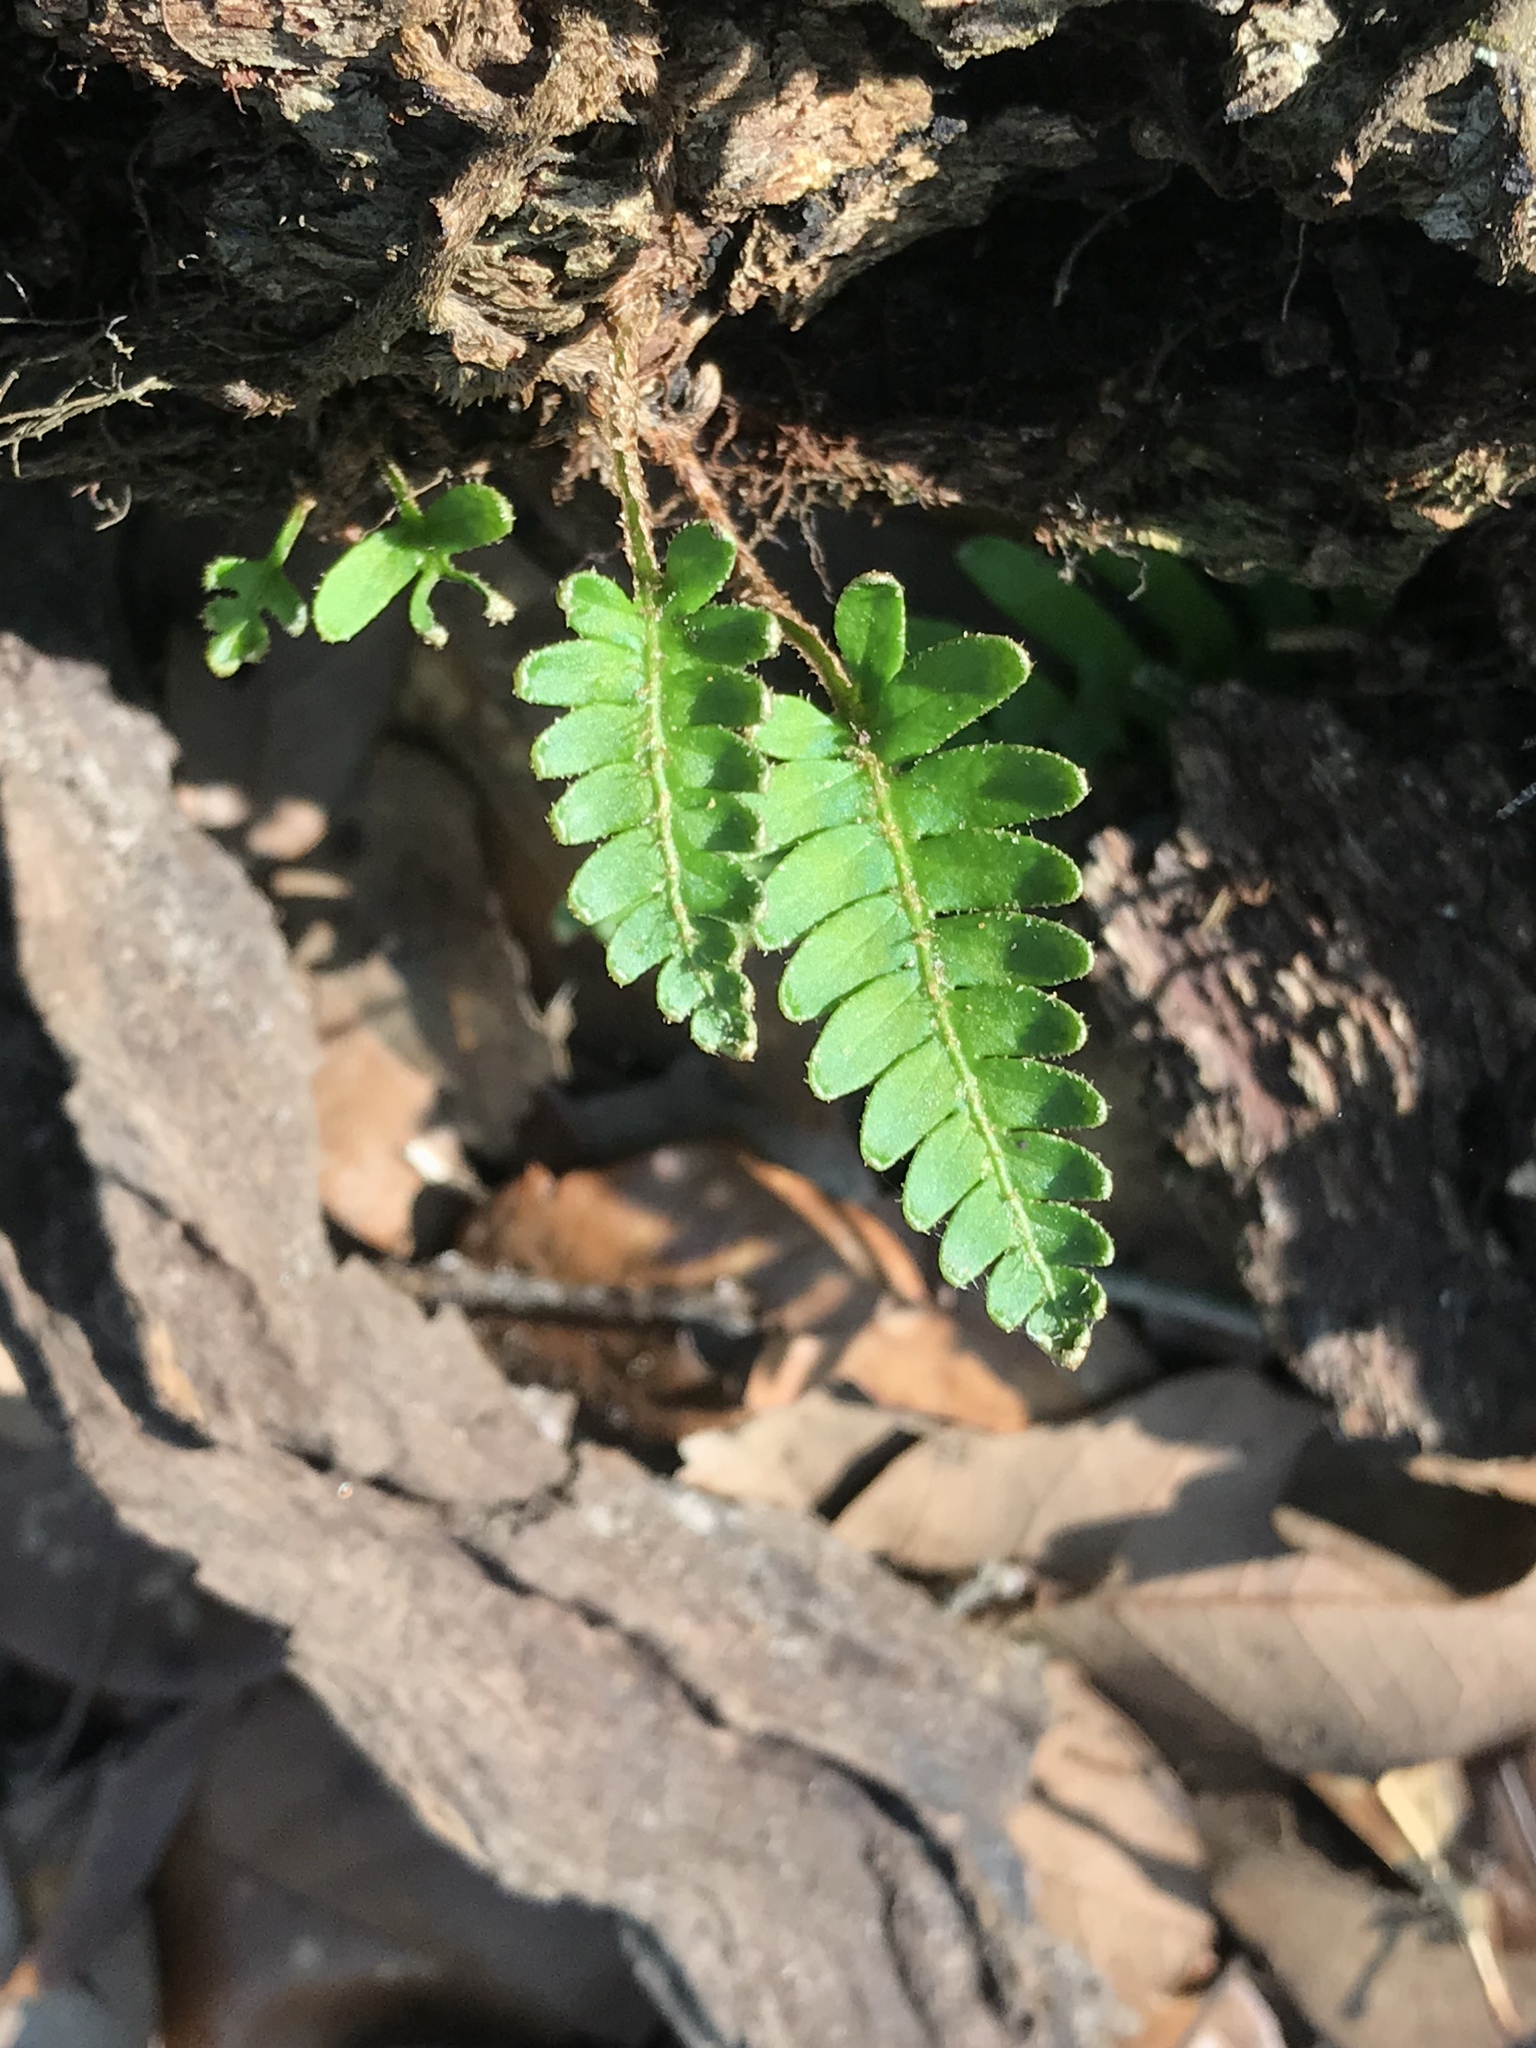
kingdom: Plantae
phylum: Tracheophyta
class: Polypodiopsida
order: Polypodiales
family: Polypodiaceae
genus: Pleopeltis
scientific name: Pleopeltis michauxiana
